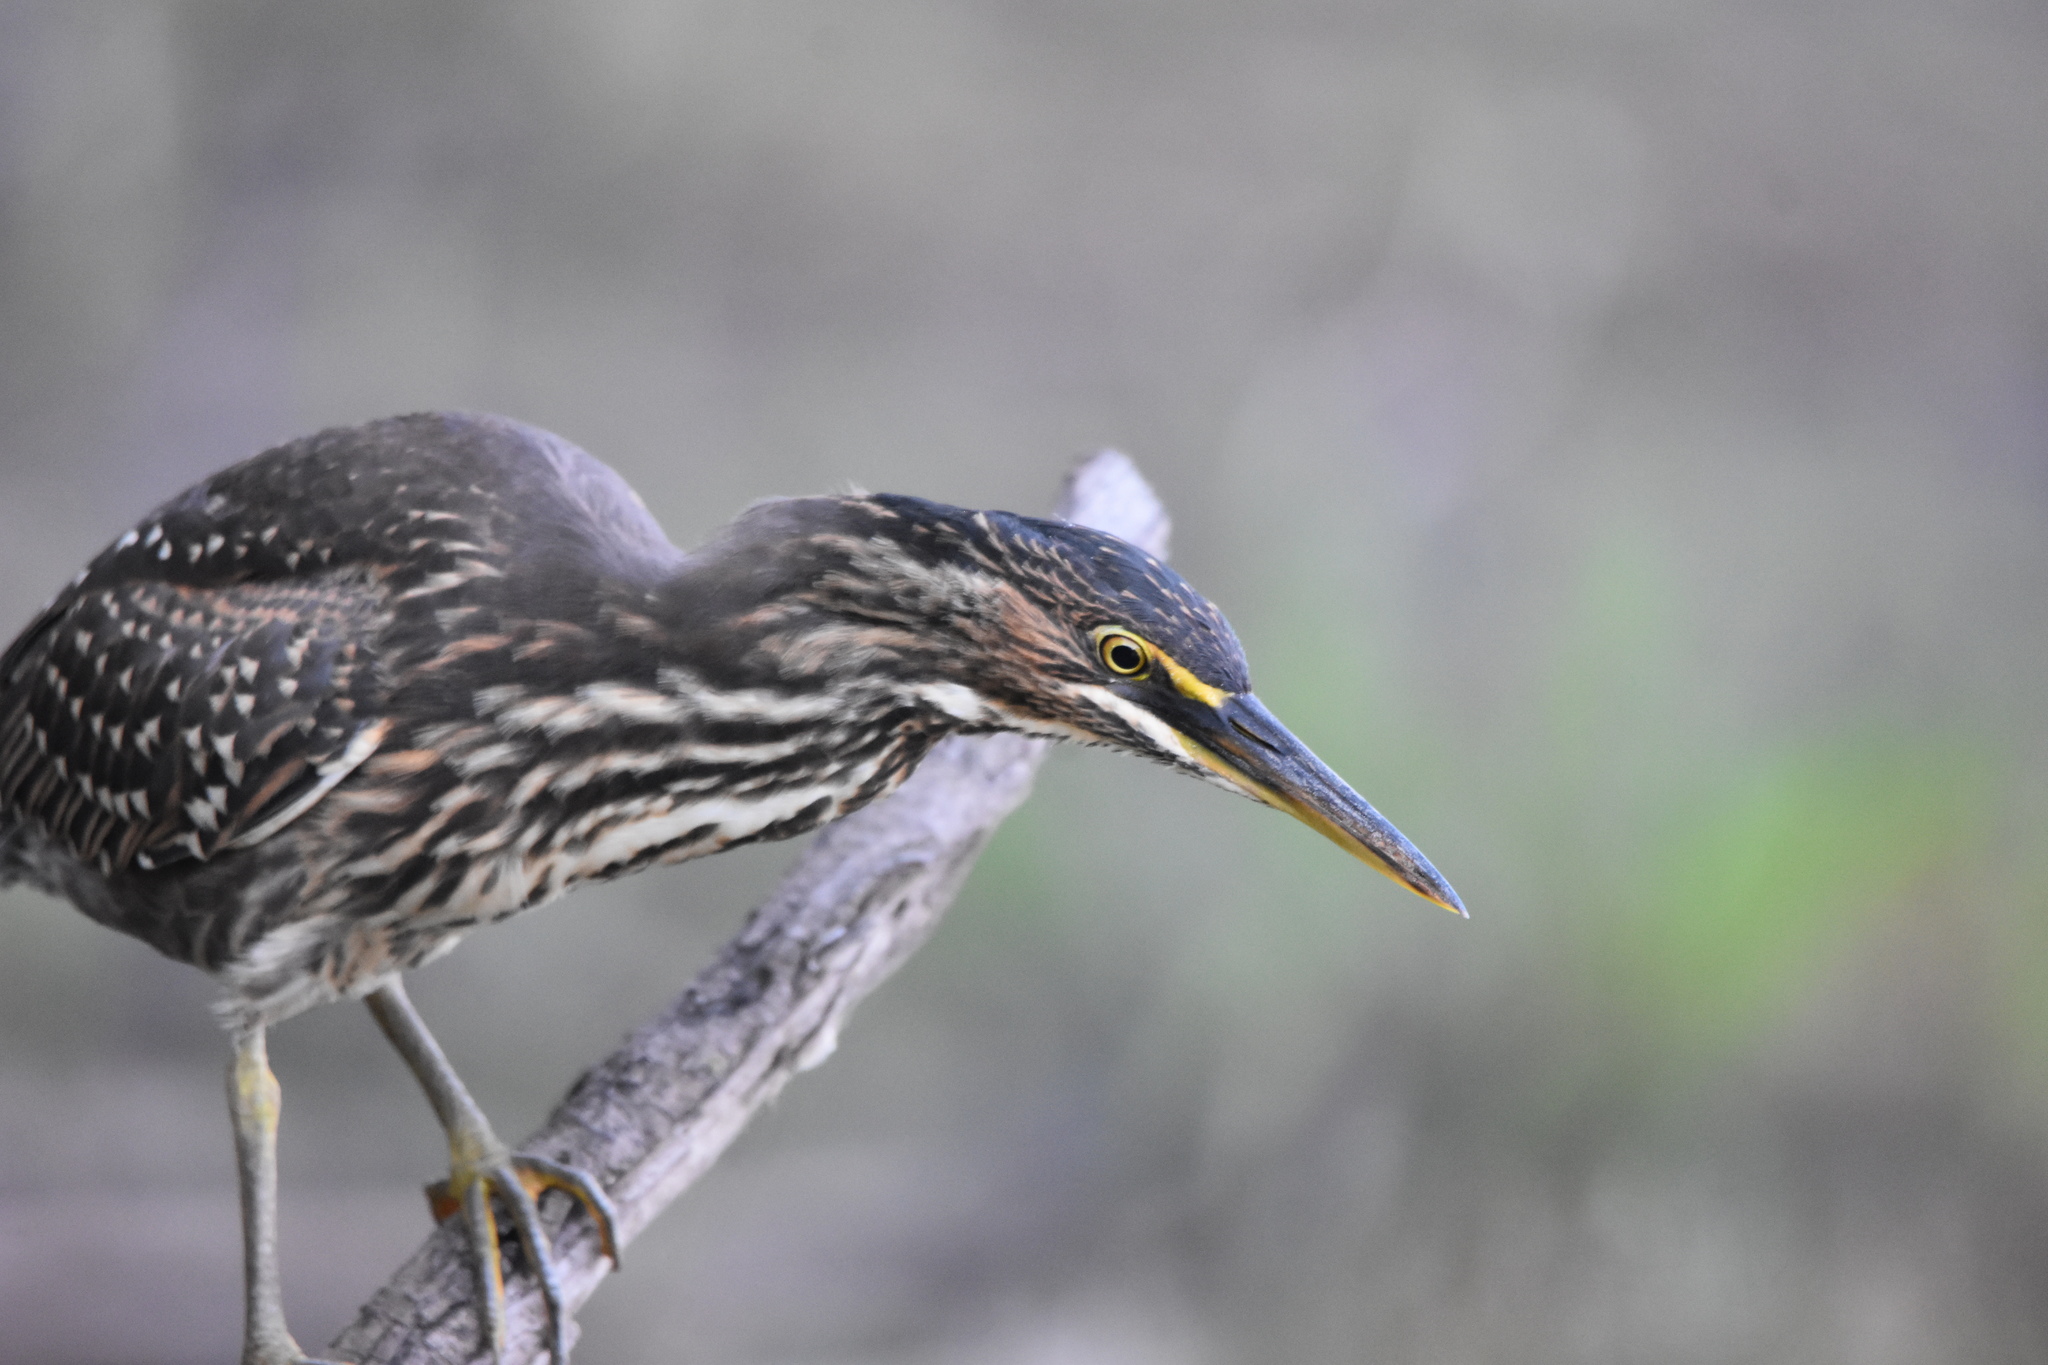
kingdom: Animalia
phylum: Chordata
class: Aves
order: Pelecaniformes
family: Ardeidae
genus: Butorides
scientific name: Butorides striata
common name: Striated heron
